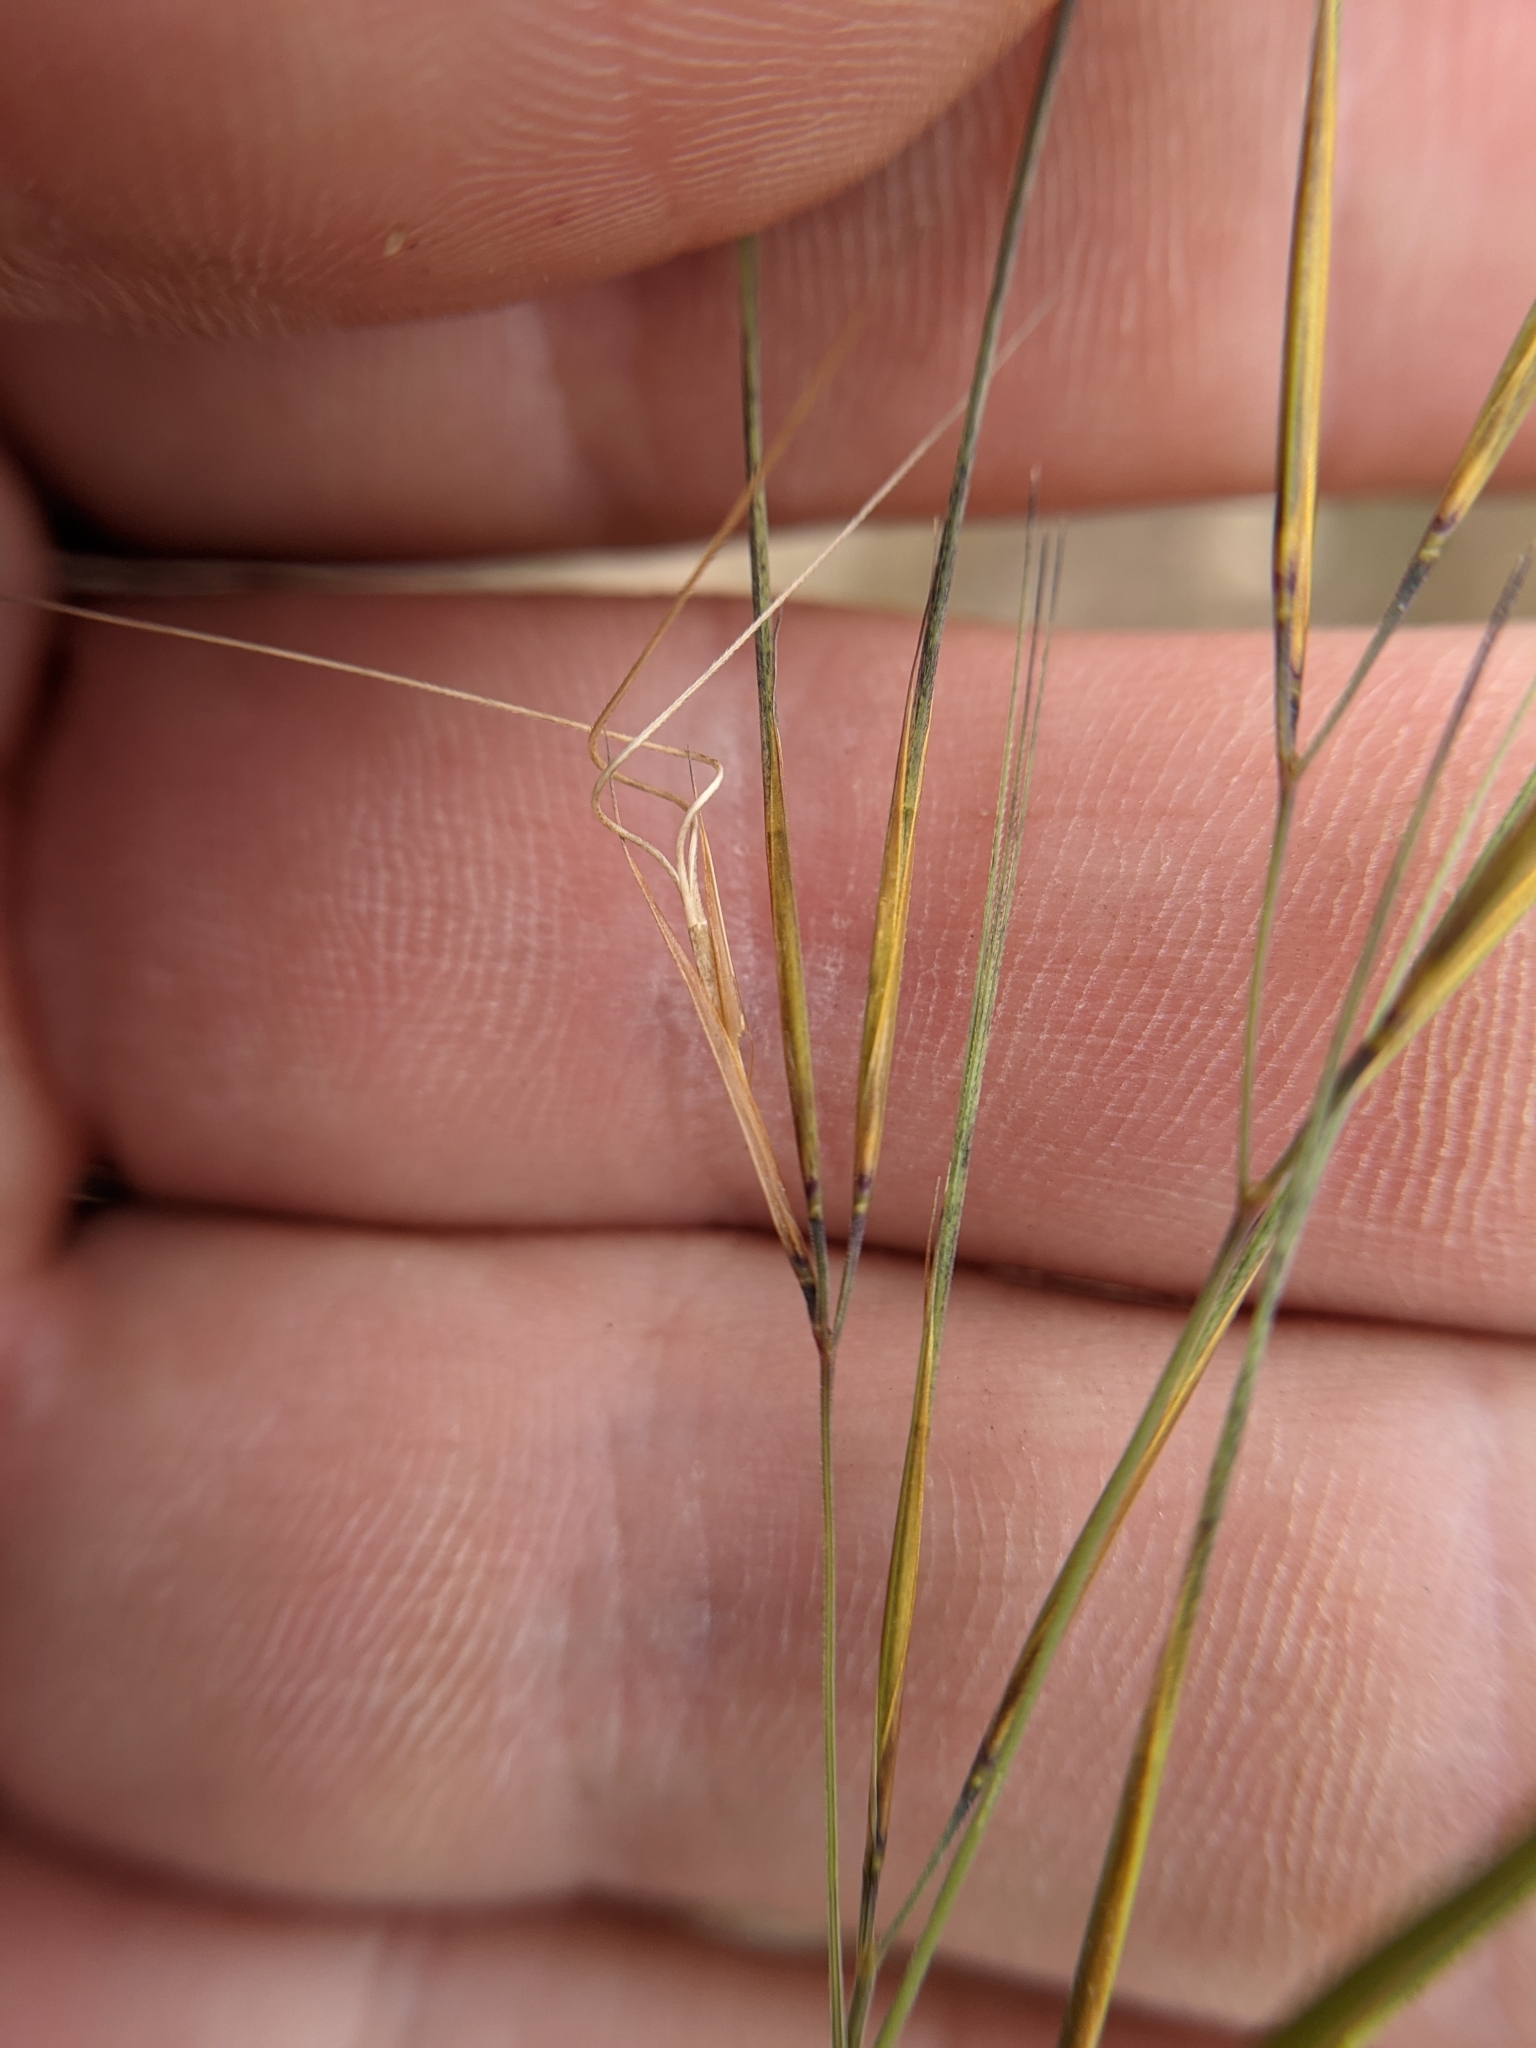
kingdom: Plantae
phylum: Tracheophyta
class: Liliopsida
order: Poales
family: Poaceae
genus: Aristida
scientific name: Aristida desmantha
